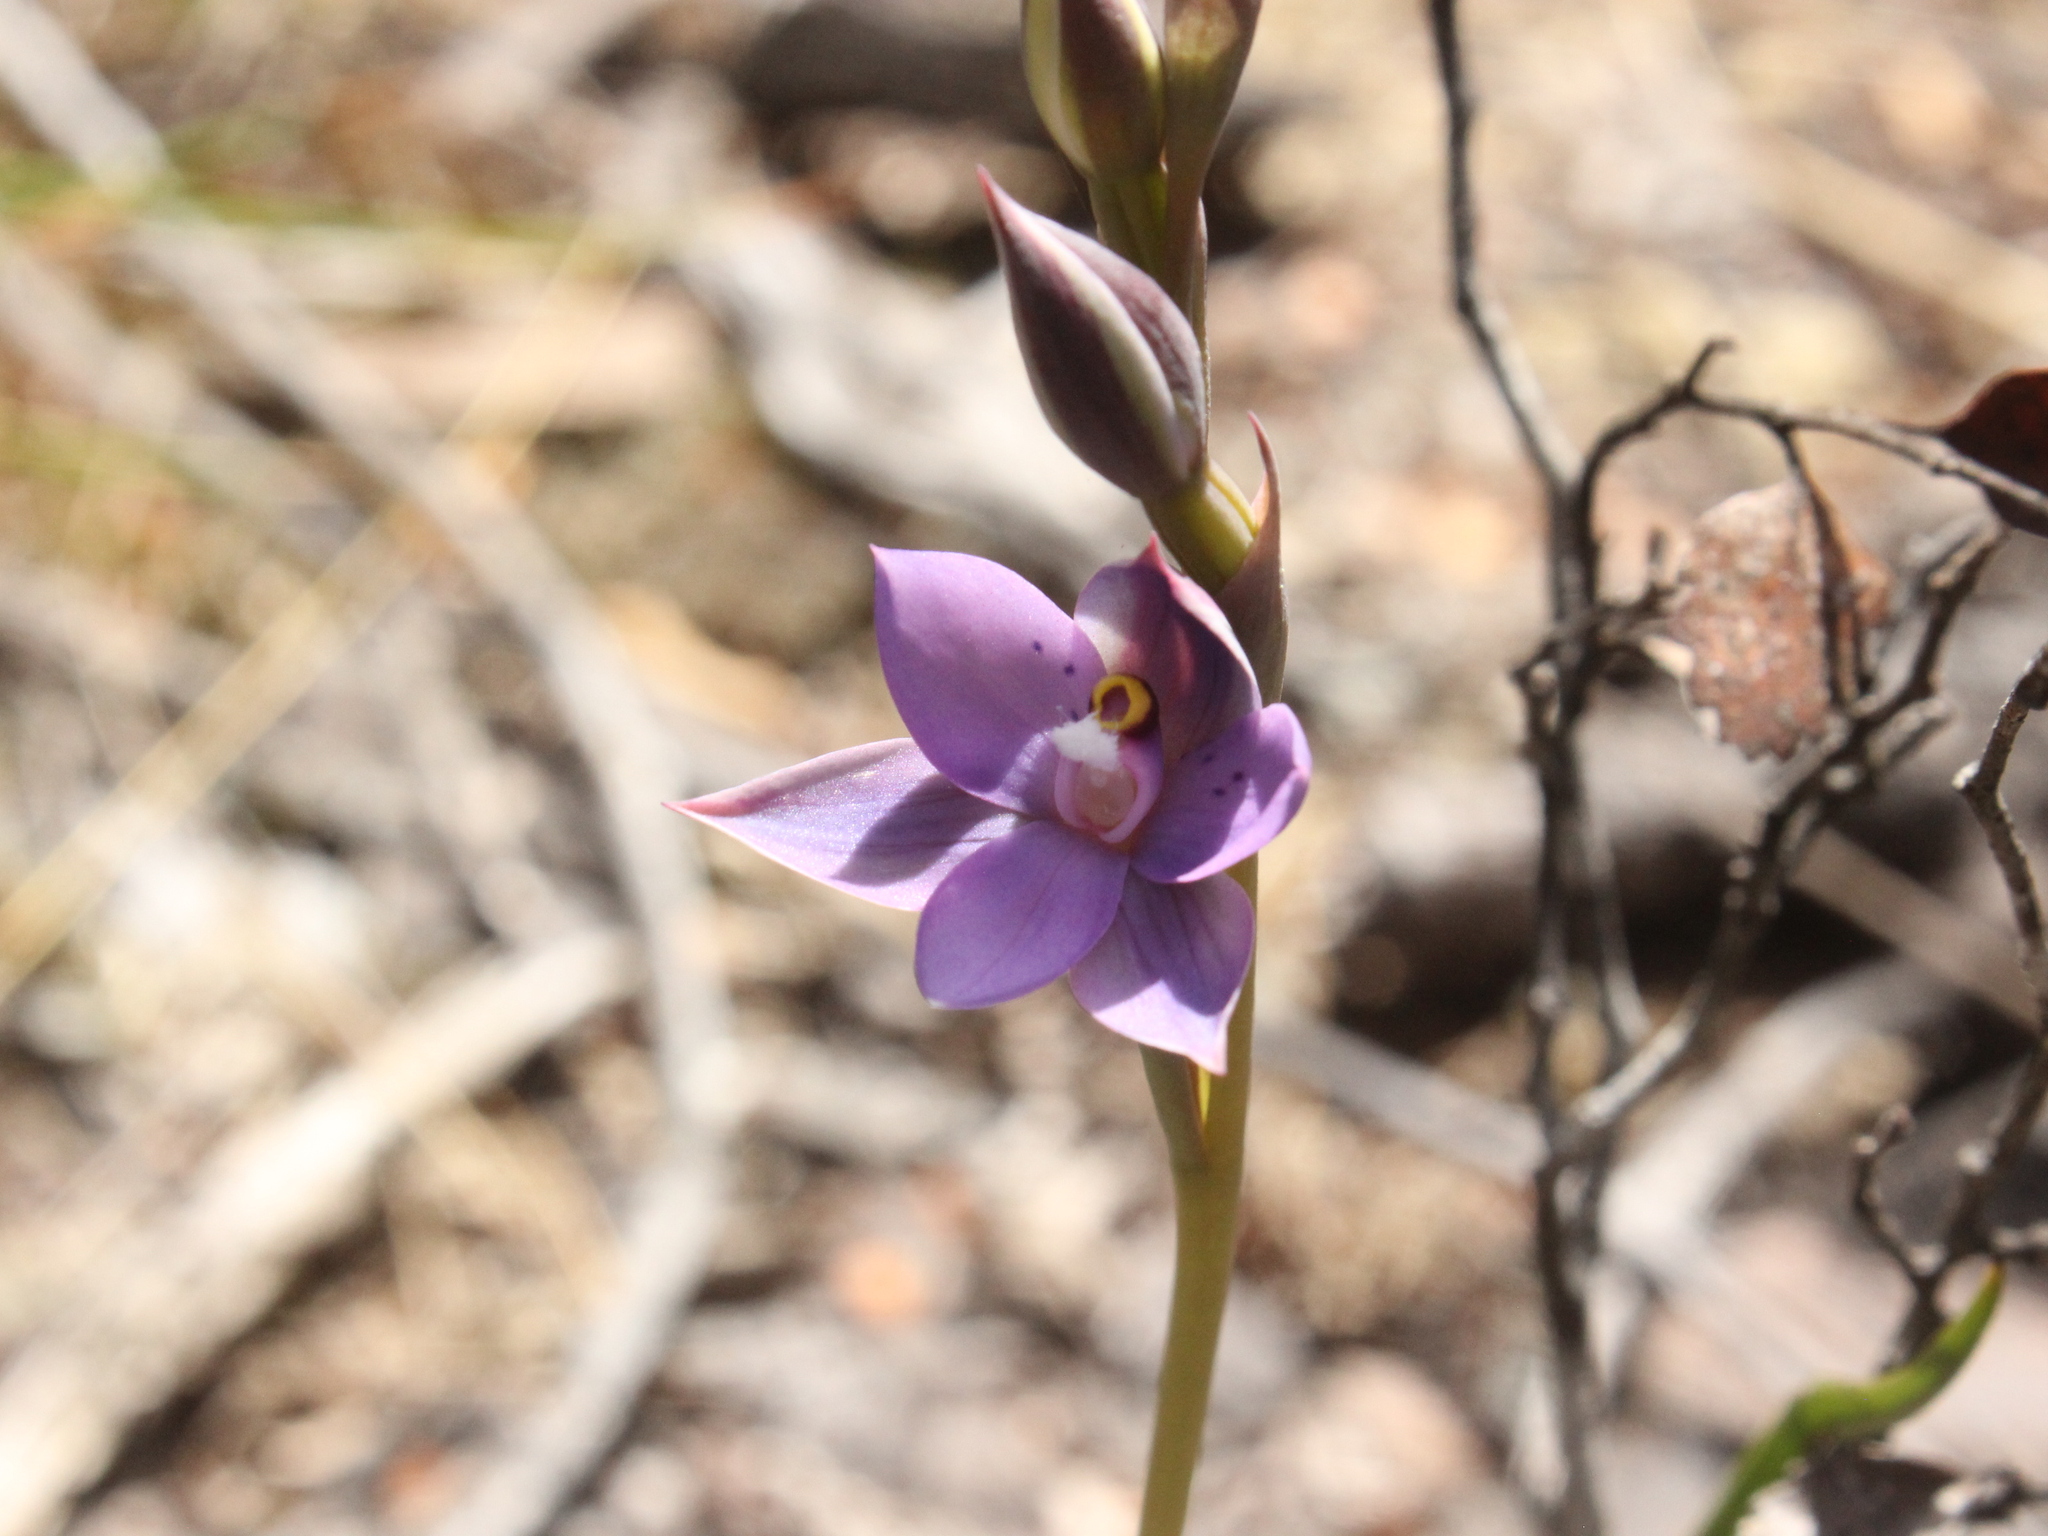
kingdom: Plantae
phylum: Tracheophyta
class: Liliopsida
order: Asparagales
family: Orchidaceae
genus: Thelymitra
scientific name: Thelymitra nervosa
